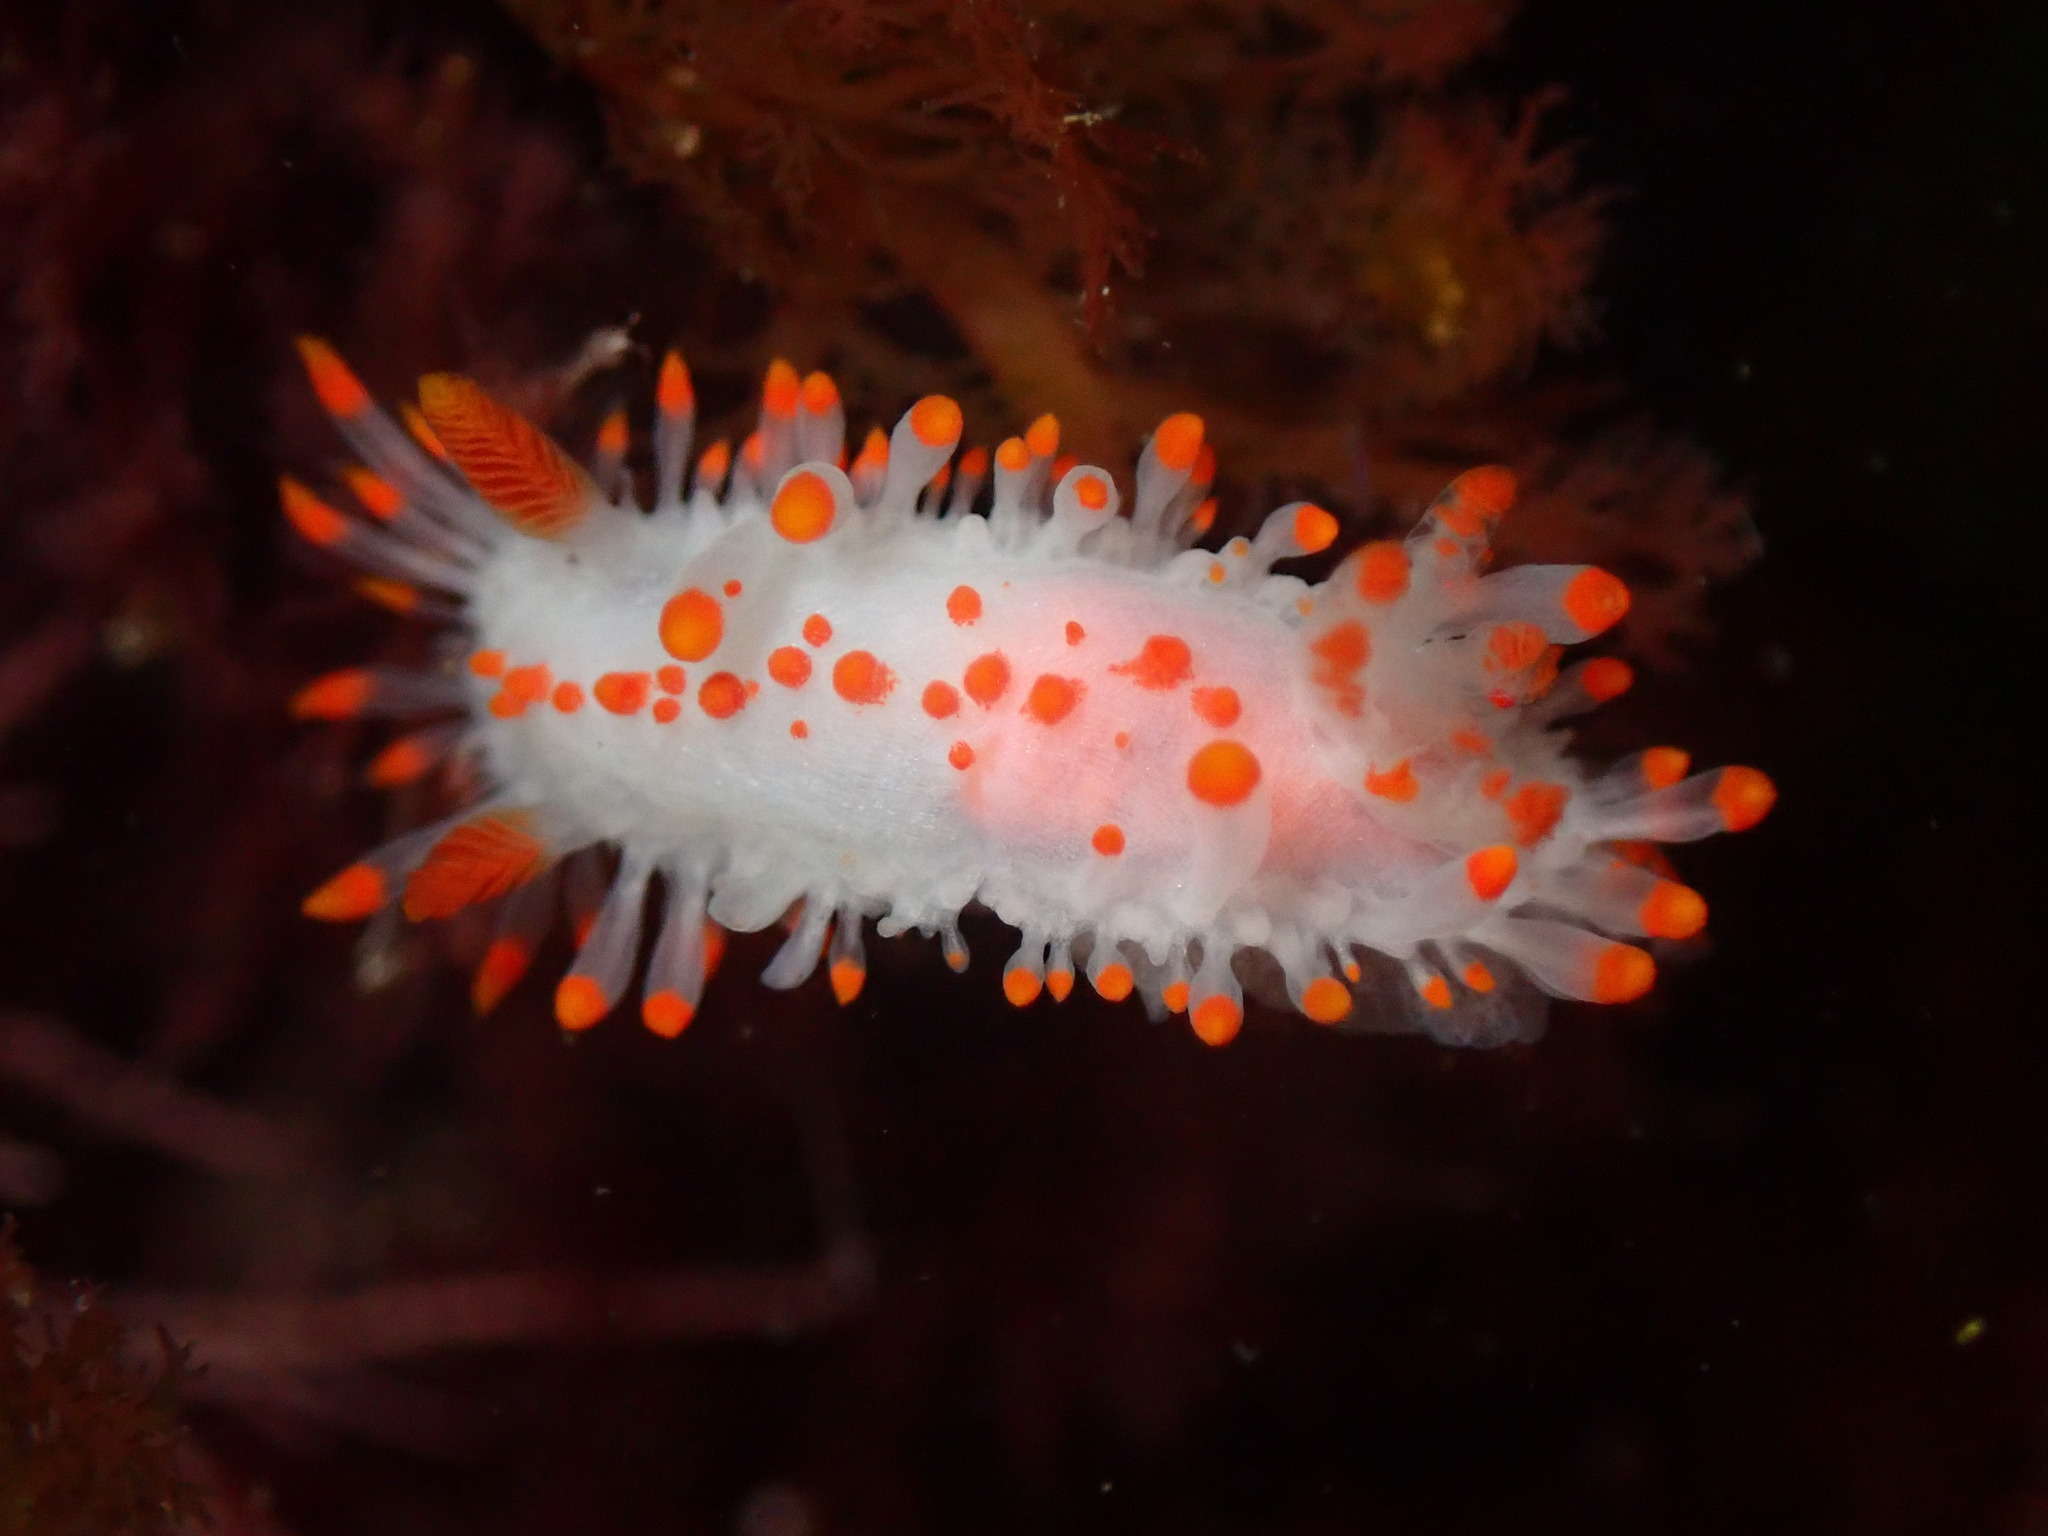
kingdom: Animalia
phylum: Mollusca
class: Gastropoda
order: Nudibranchia
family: Polyceridae
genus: Limacia
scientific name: Limacia mcdonaldi
